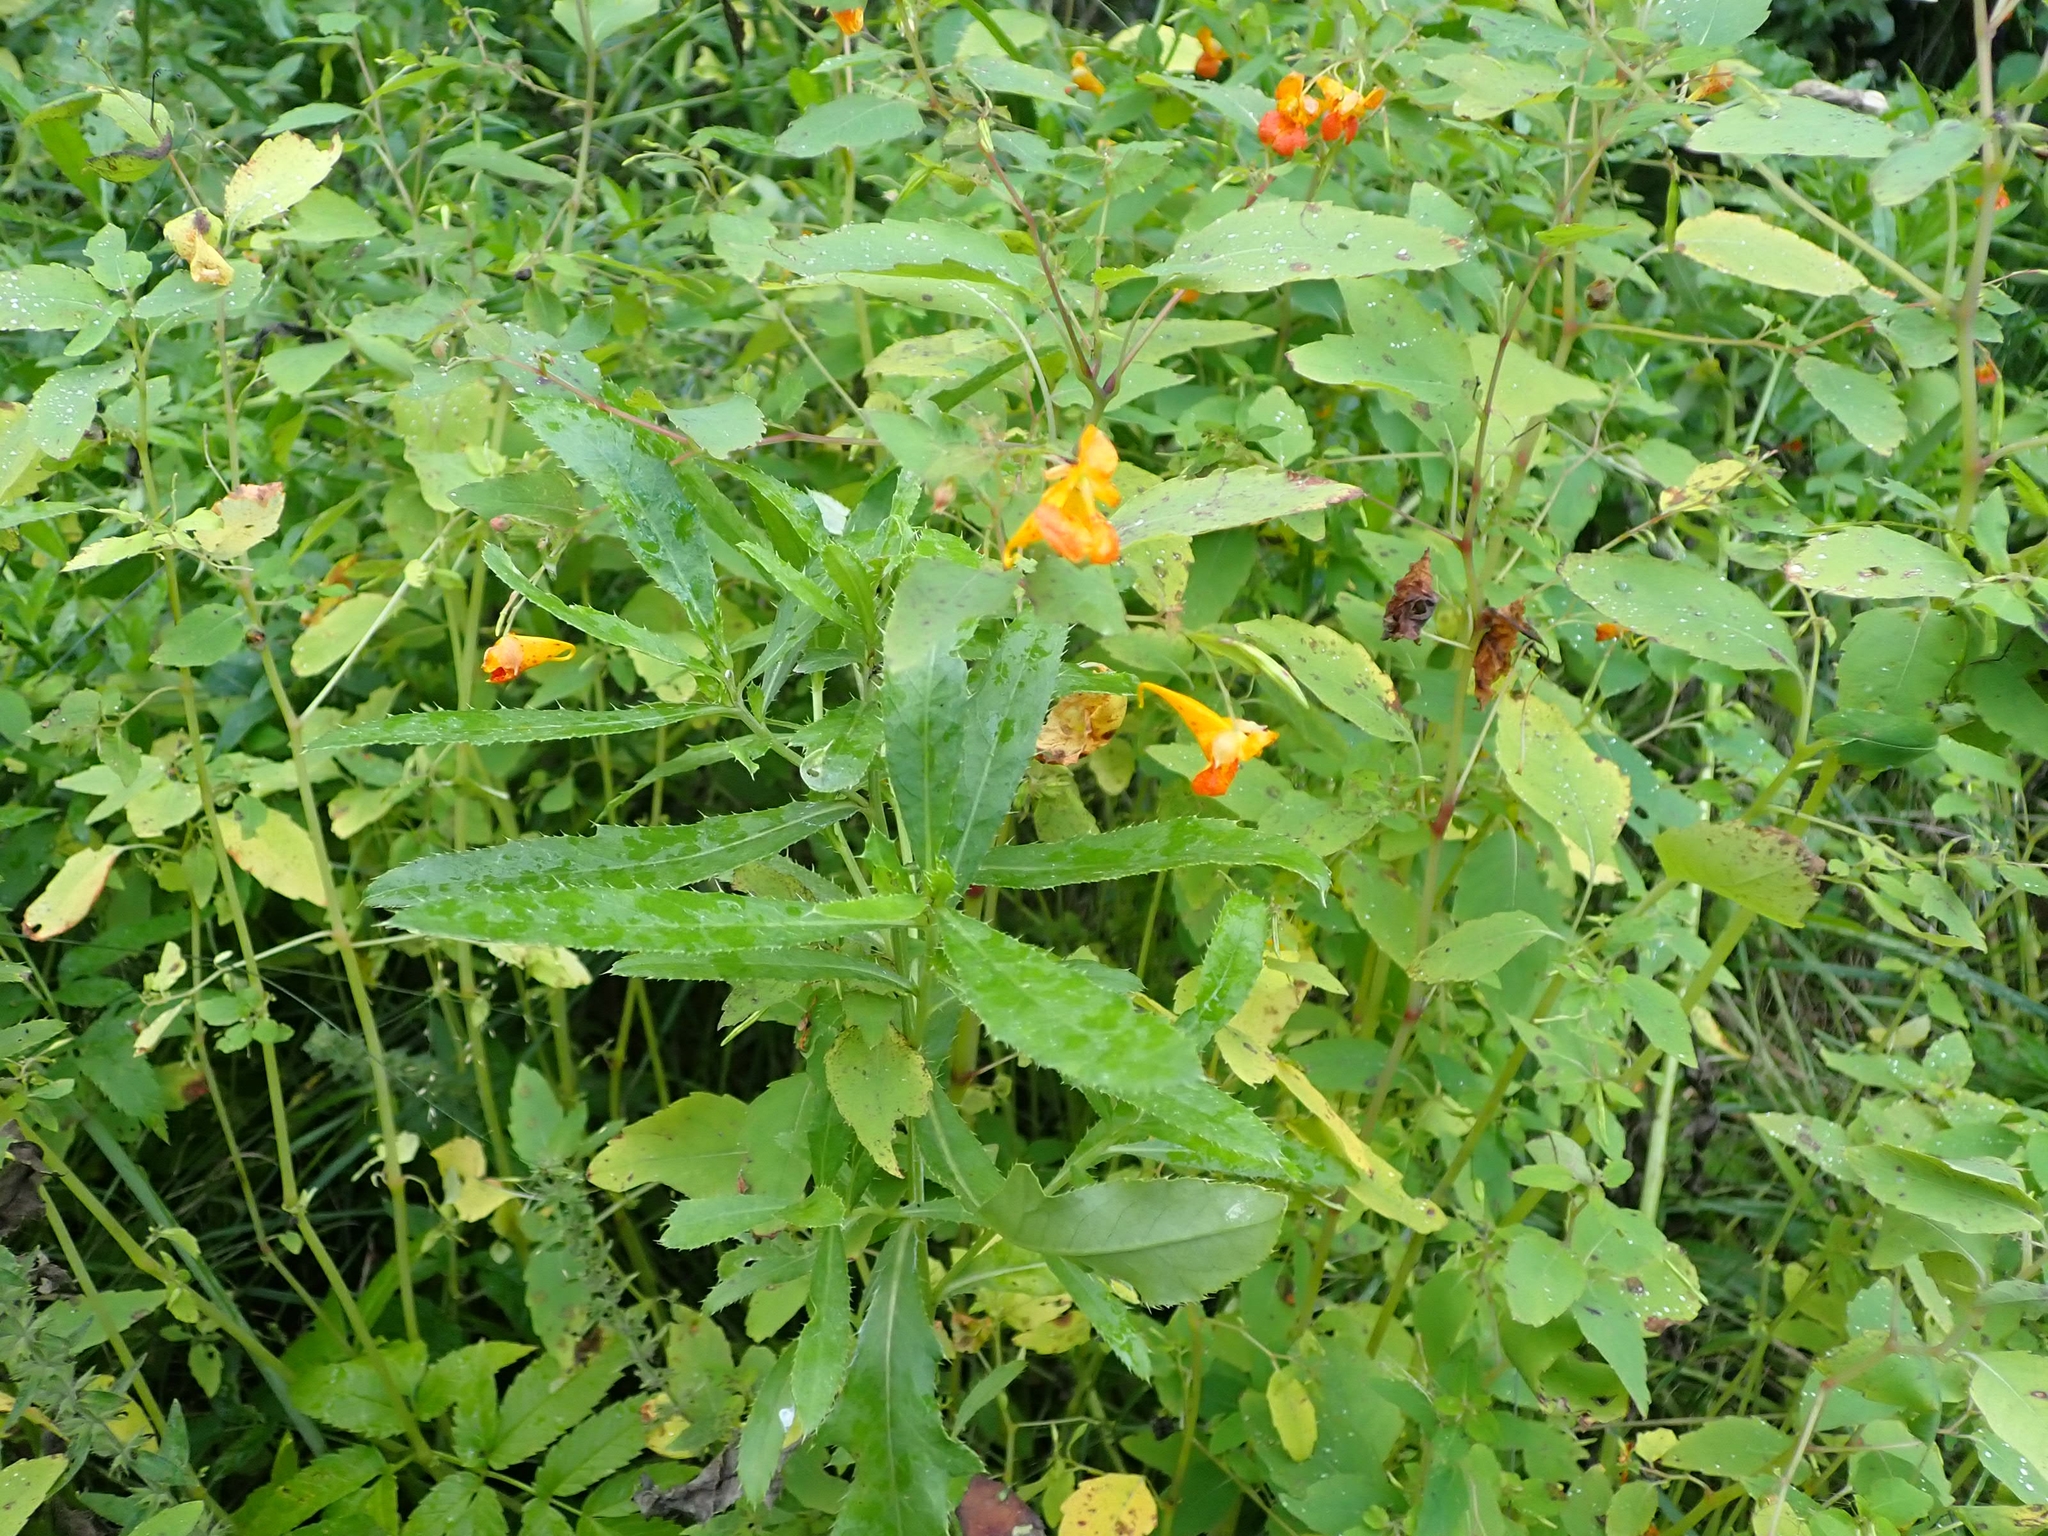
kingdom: Plantae
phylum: Tracheophyta
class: Magnoliopsida
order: Ericales
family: Balsaminaceae
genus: Impatiens
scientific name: Impatiens capensis
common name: Orange balsam
